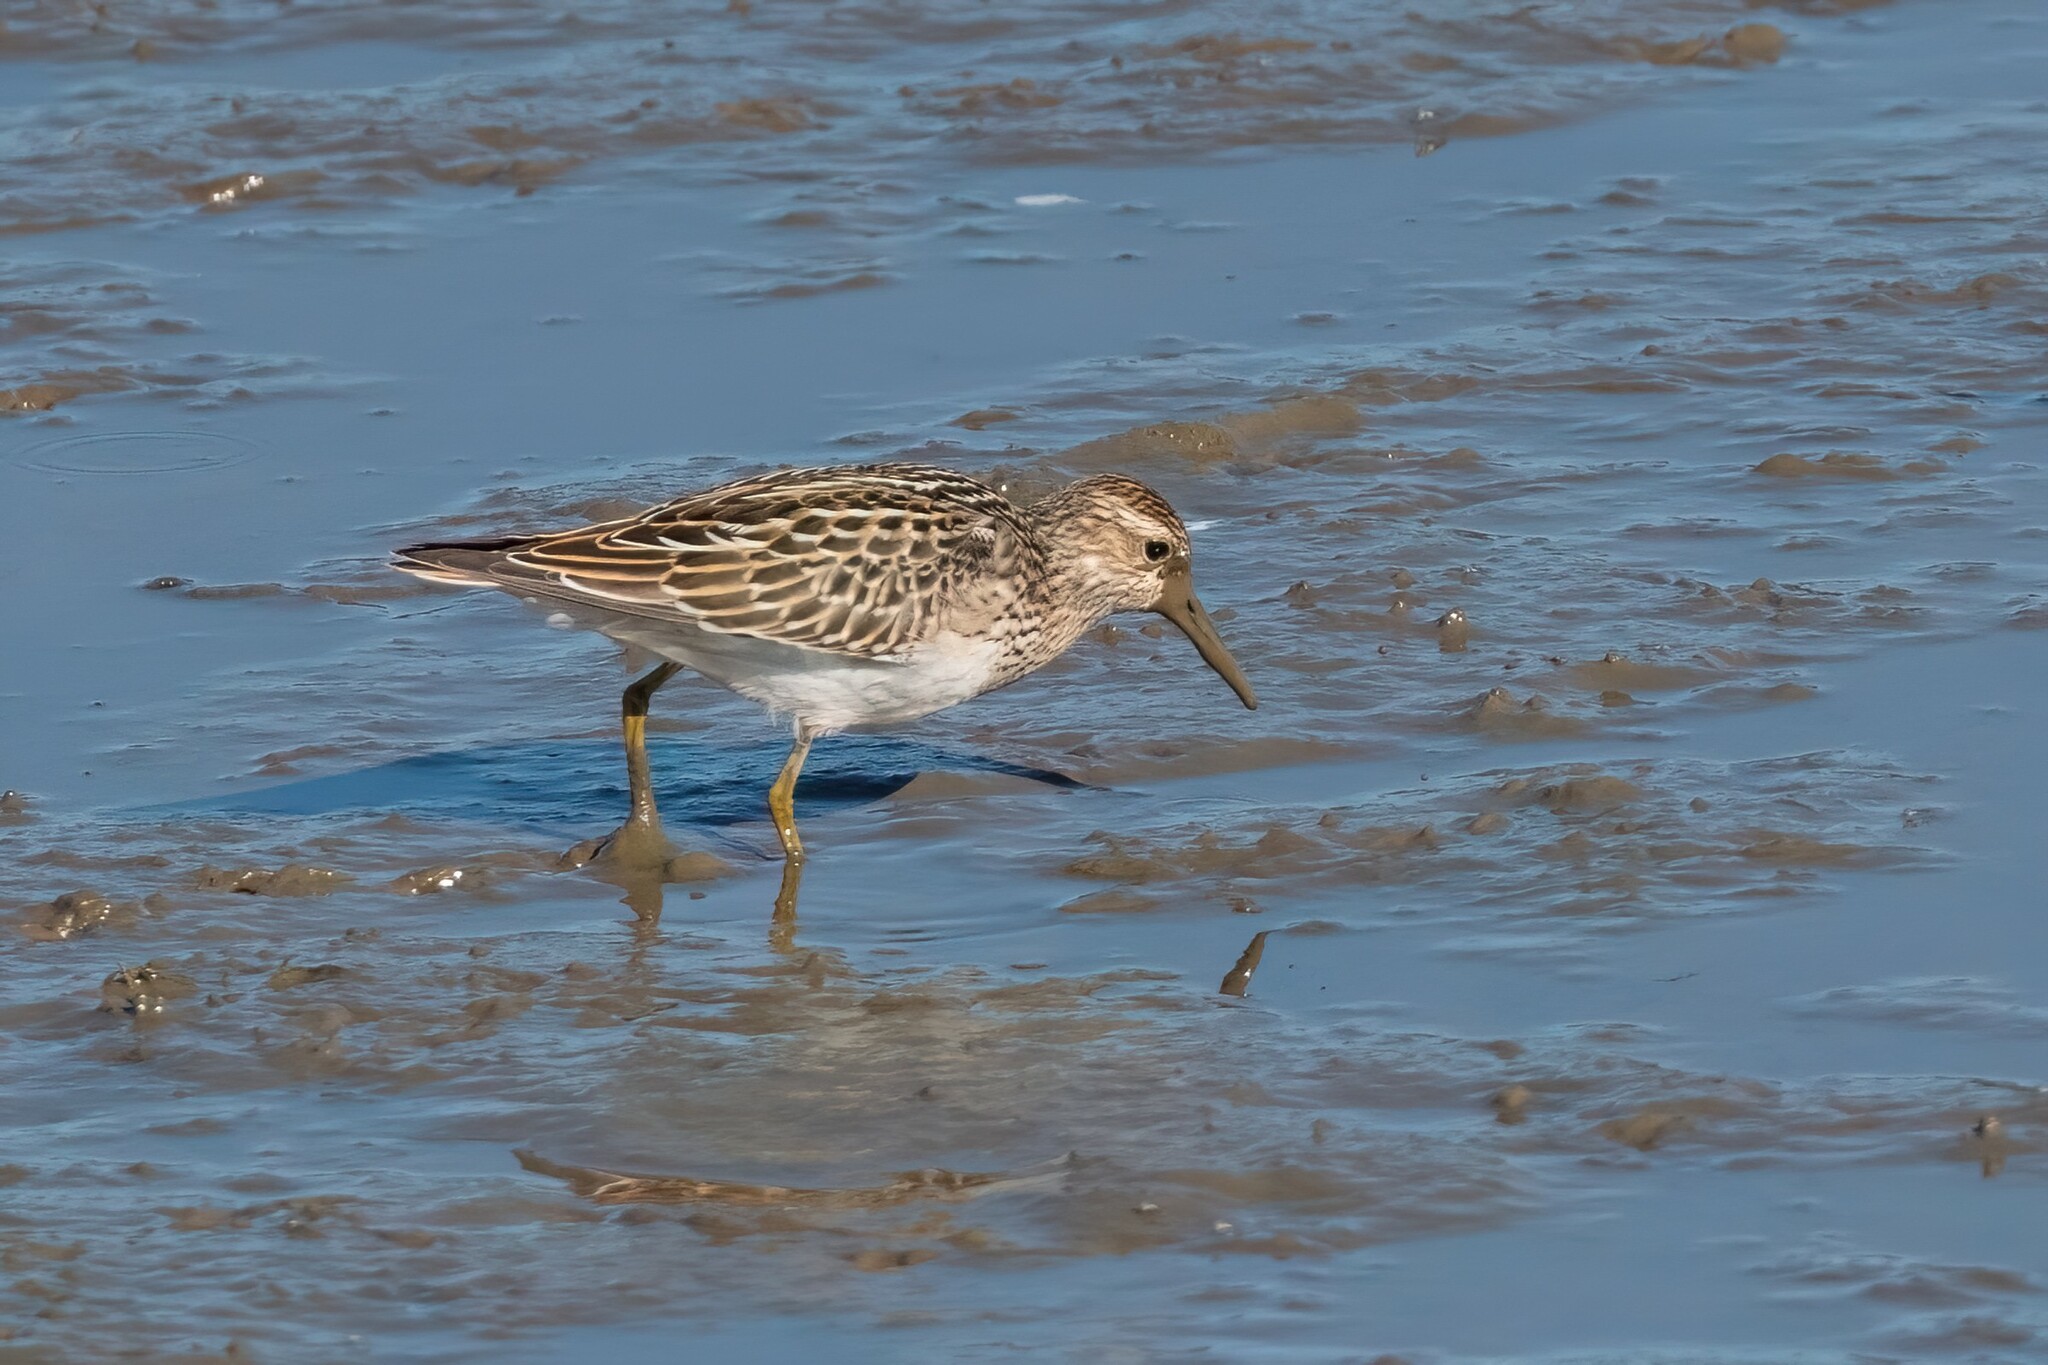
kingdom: Animalia
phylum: Chordata
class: Aves
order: Charadriiformes
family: Scolopacidae
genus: Calidris
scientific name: Calidris melanotos
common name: Pectoral sandpiper
